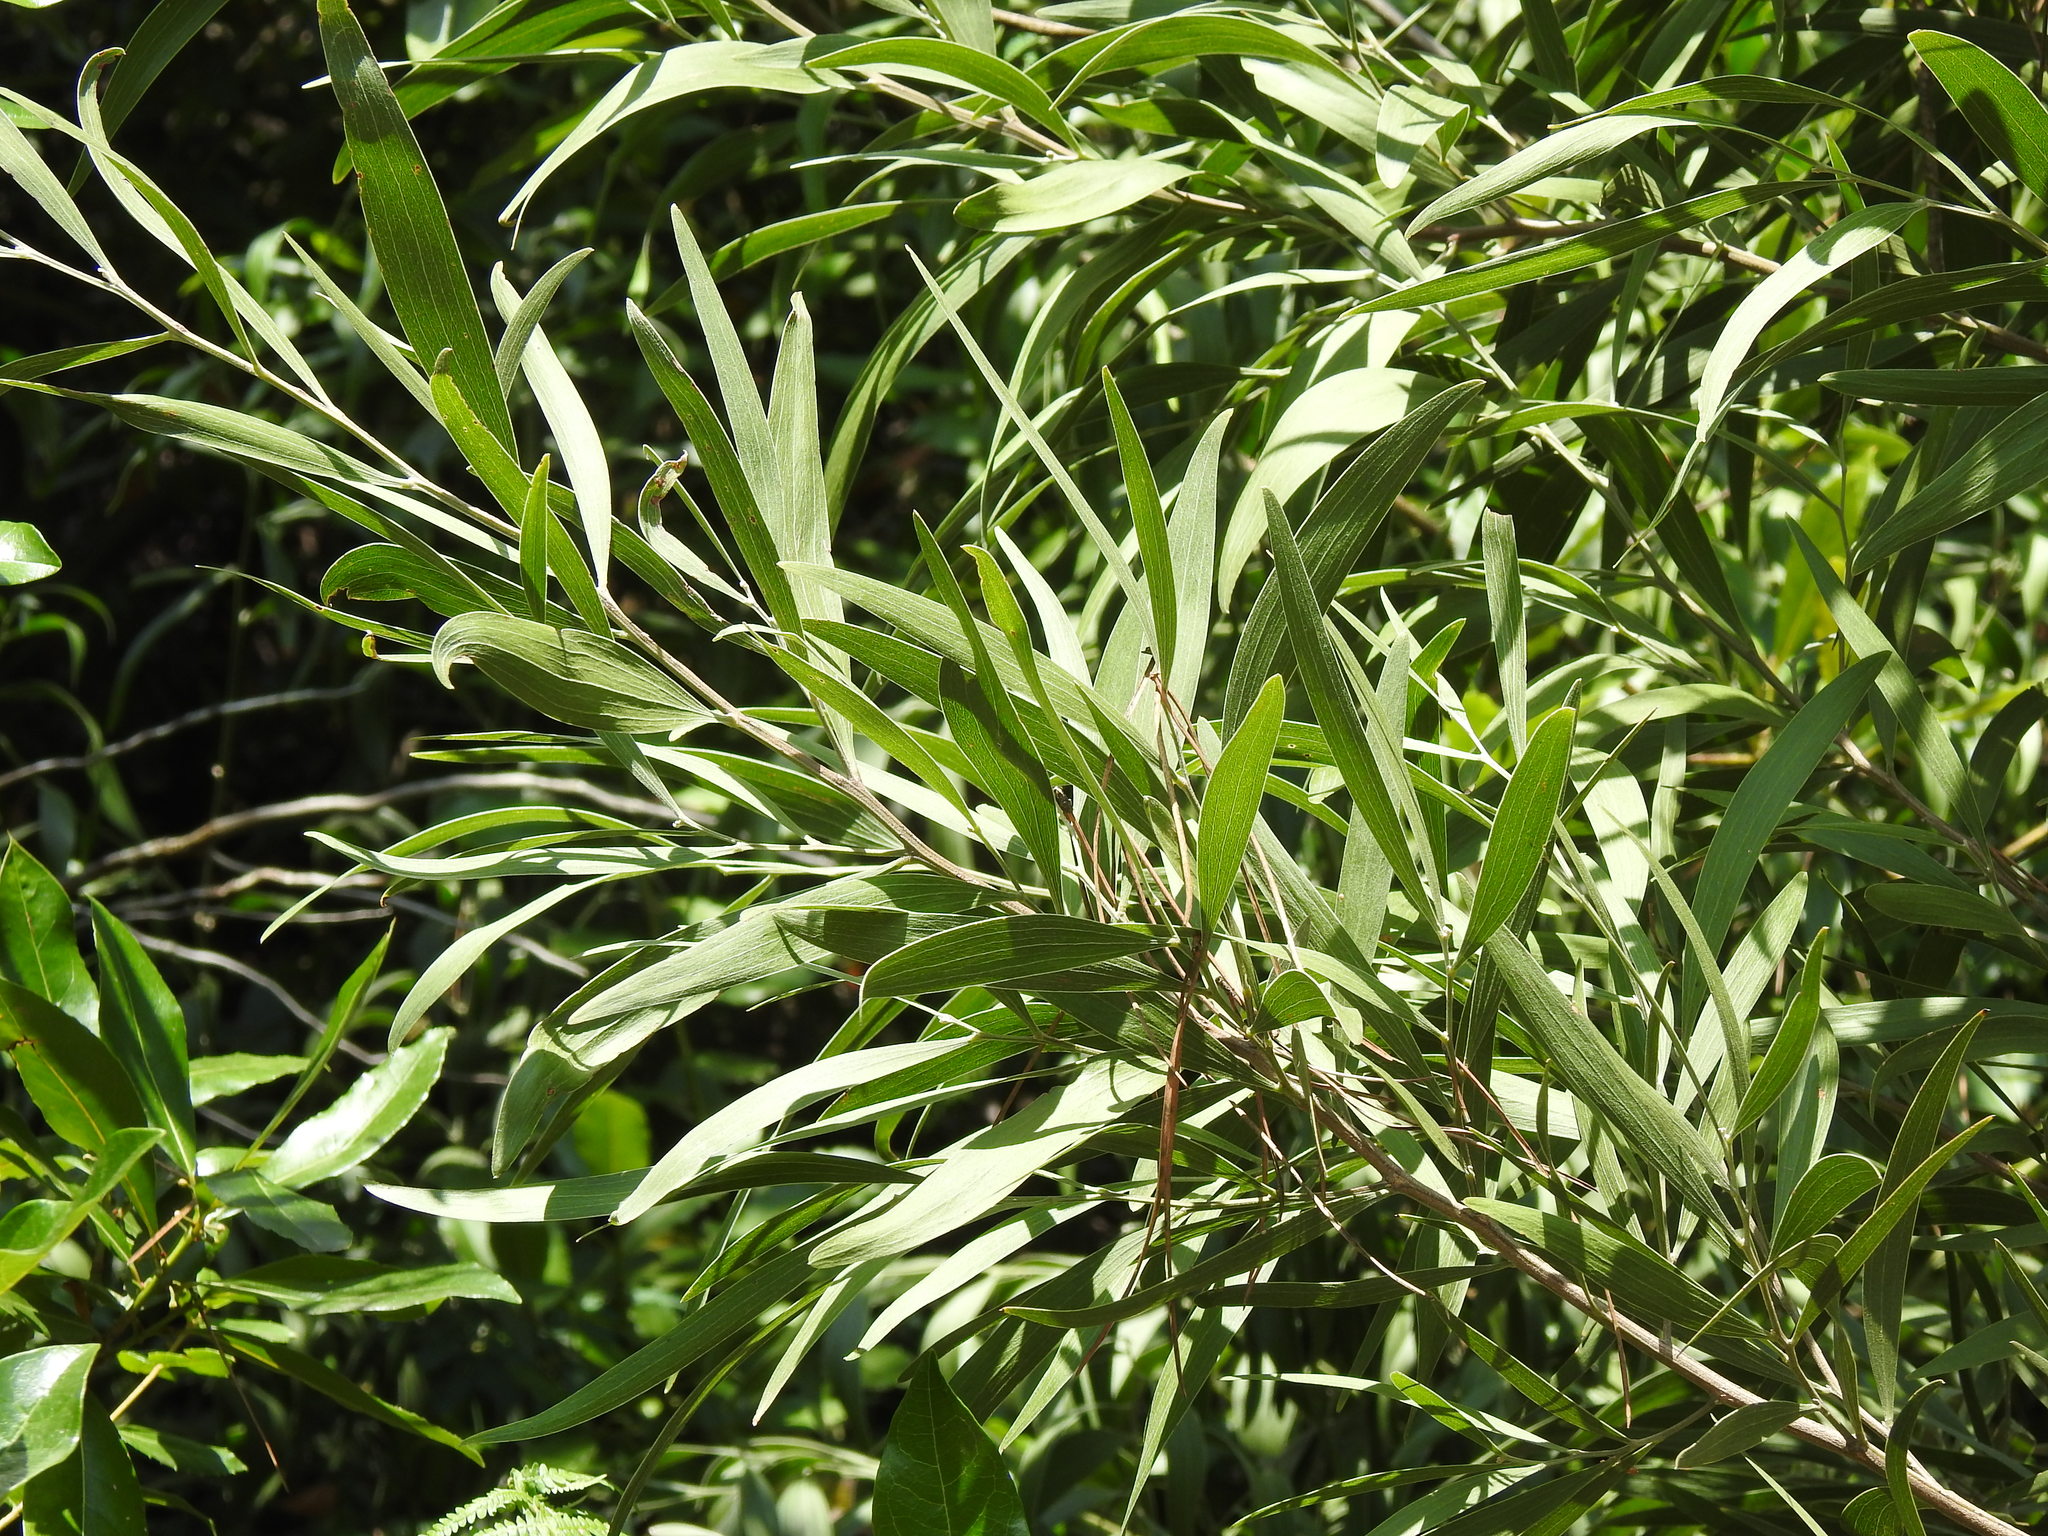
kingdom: Plantae
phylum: Tracheophyta
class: Magnoliopsida
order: Fabales
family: Fabaceae
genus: Acacia
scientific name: Acacia melanoxylon
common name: Blackwood
